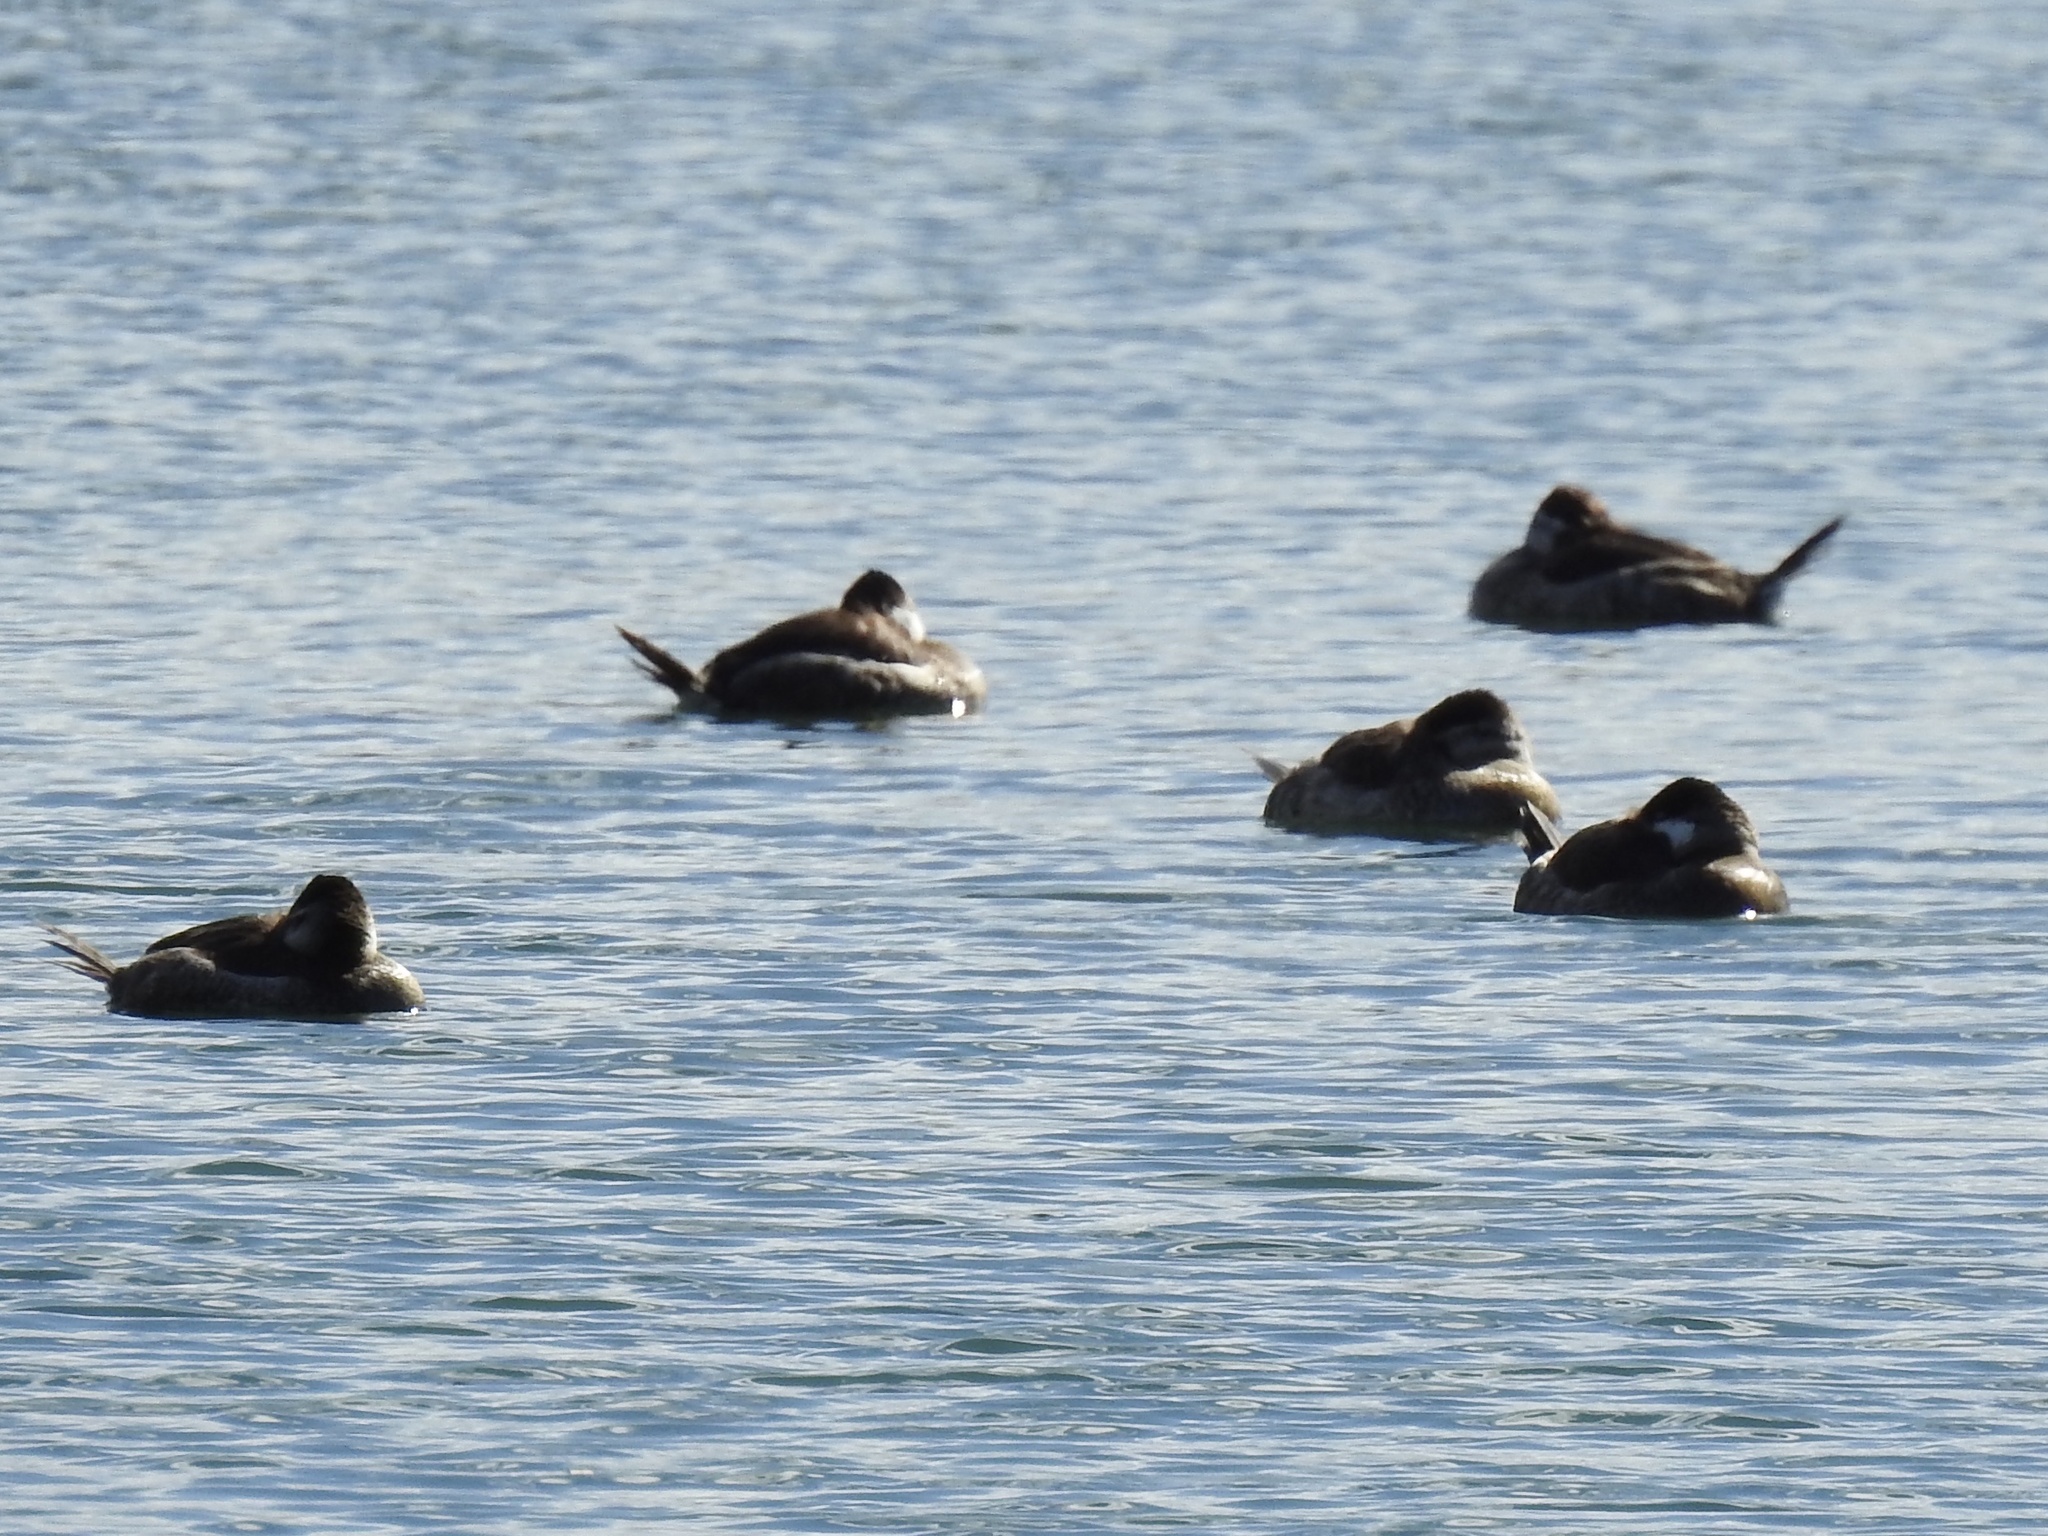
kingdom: Animalia
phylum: Chordata
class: Aves
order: Anseriformes
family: Anatidae
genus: Oxyura
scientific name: Oxyura jamaicensis
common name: Ruddy duck
